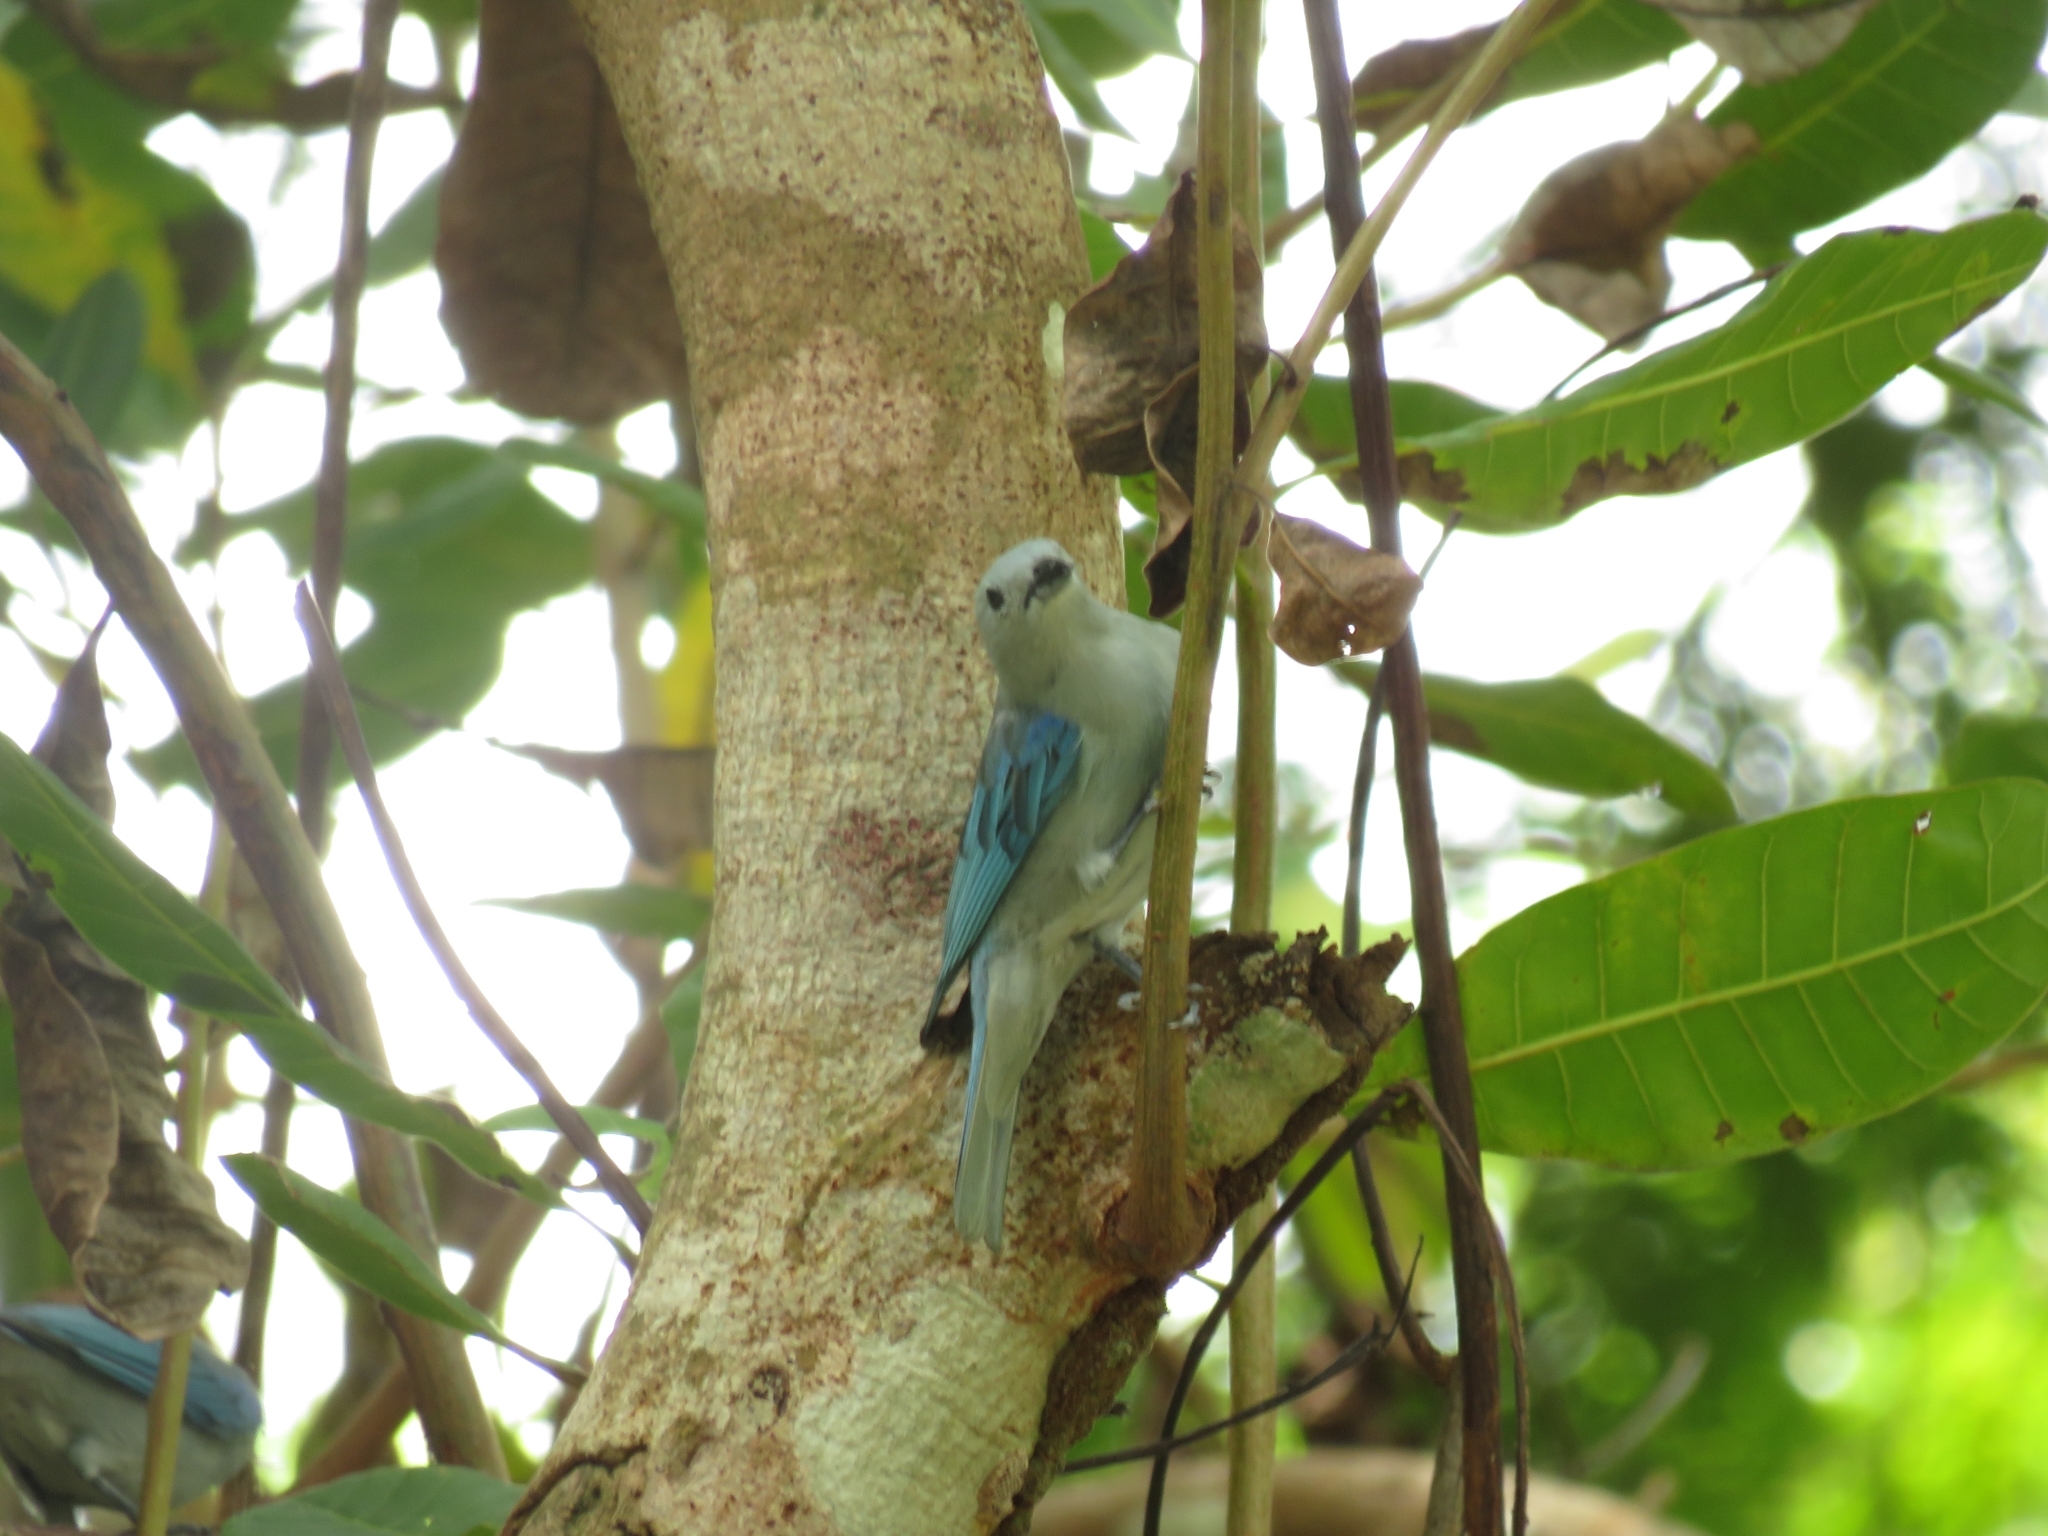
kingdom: Animalia
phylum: Chordata
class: Aves
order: Passeriformes
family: Thraupidae
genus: Thraupis
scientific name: Thraupis episcopus
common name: Blue-grey tanager
